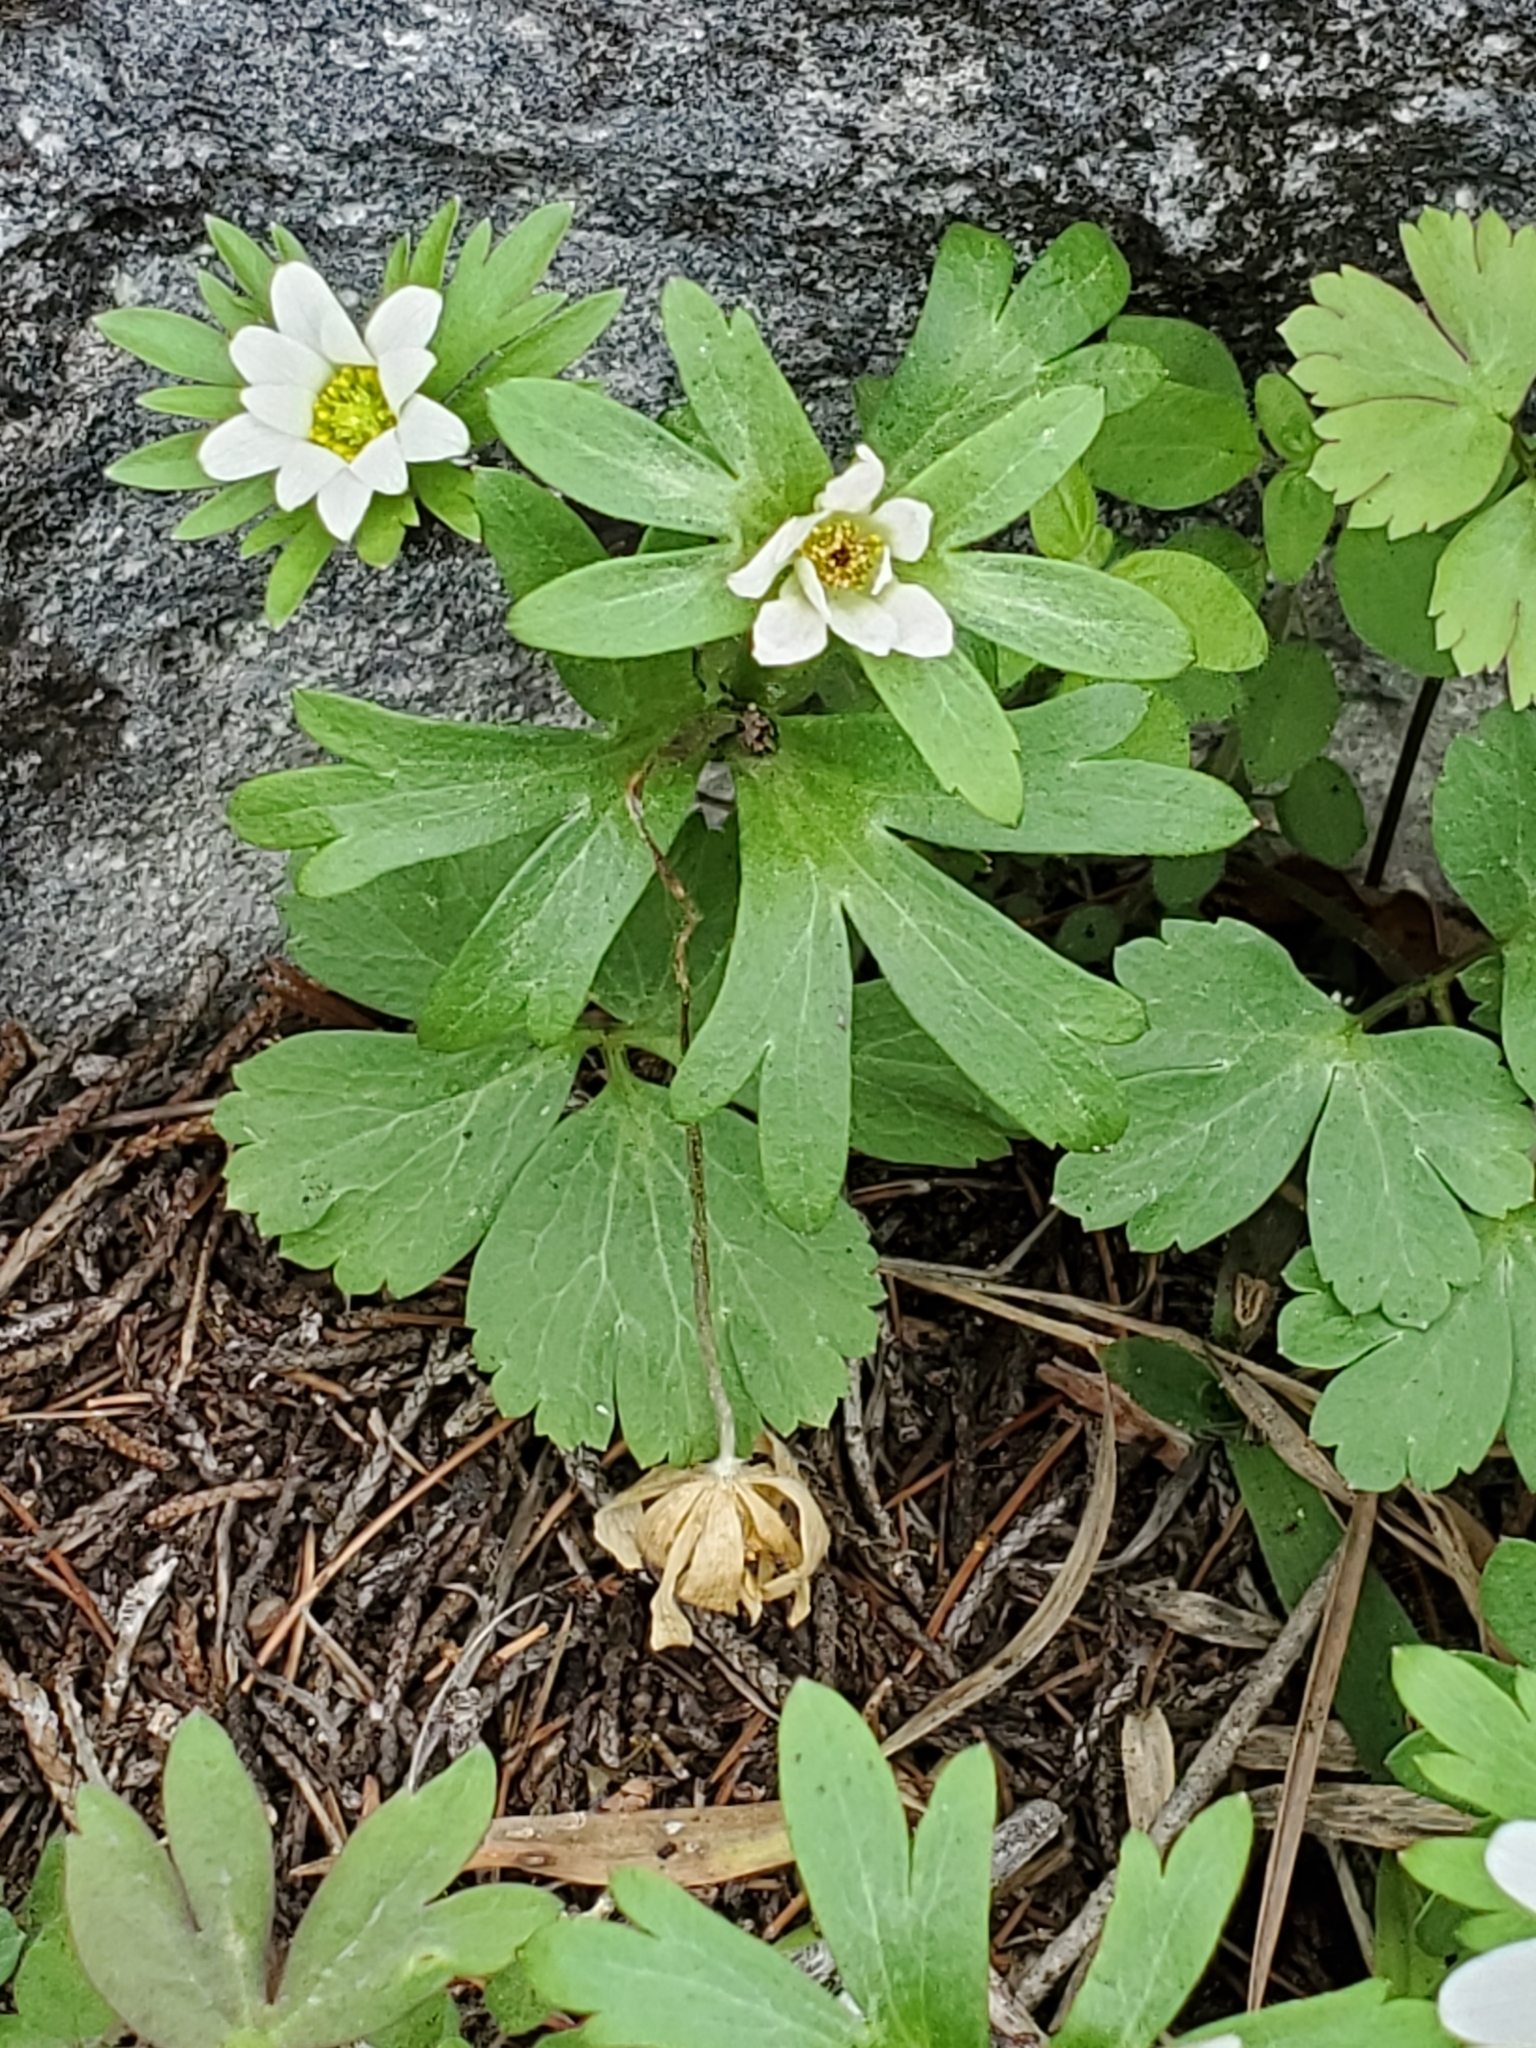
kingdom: Plantae
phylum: Tracheophyta
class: Magnoliopsida
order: Ranunculales
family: Ranunculaceae
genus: Anemone
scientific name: Anemone edwardsiana
